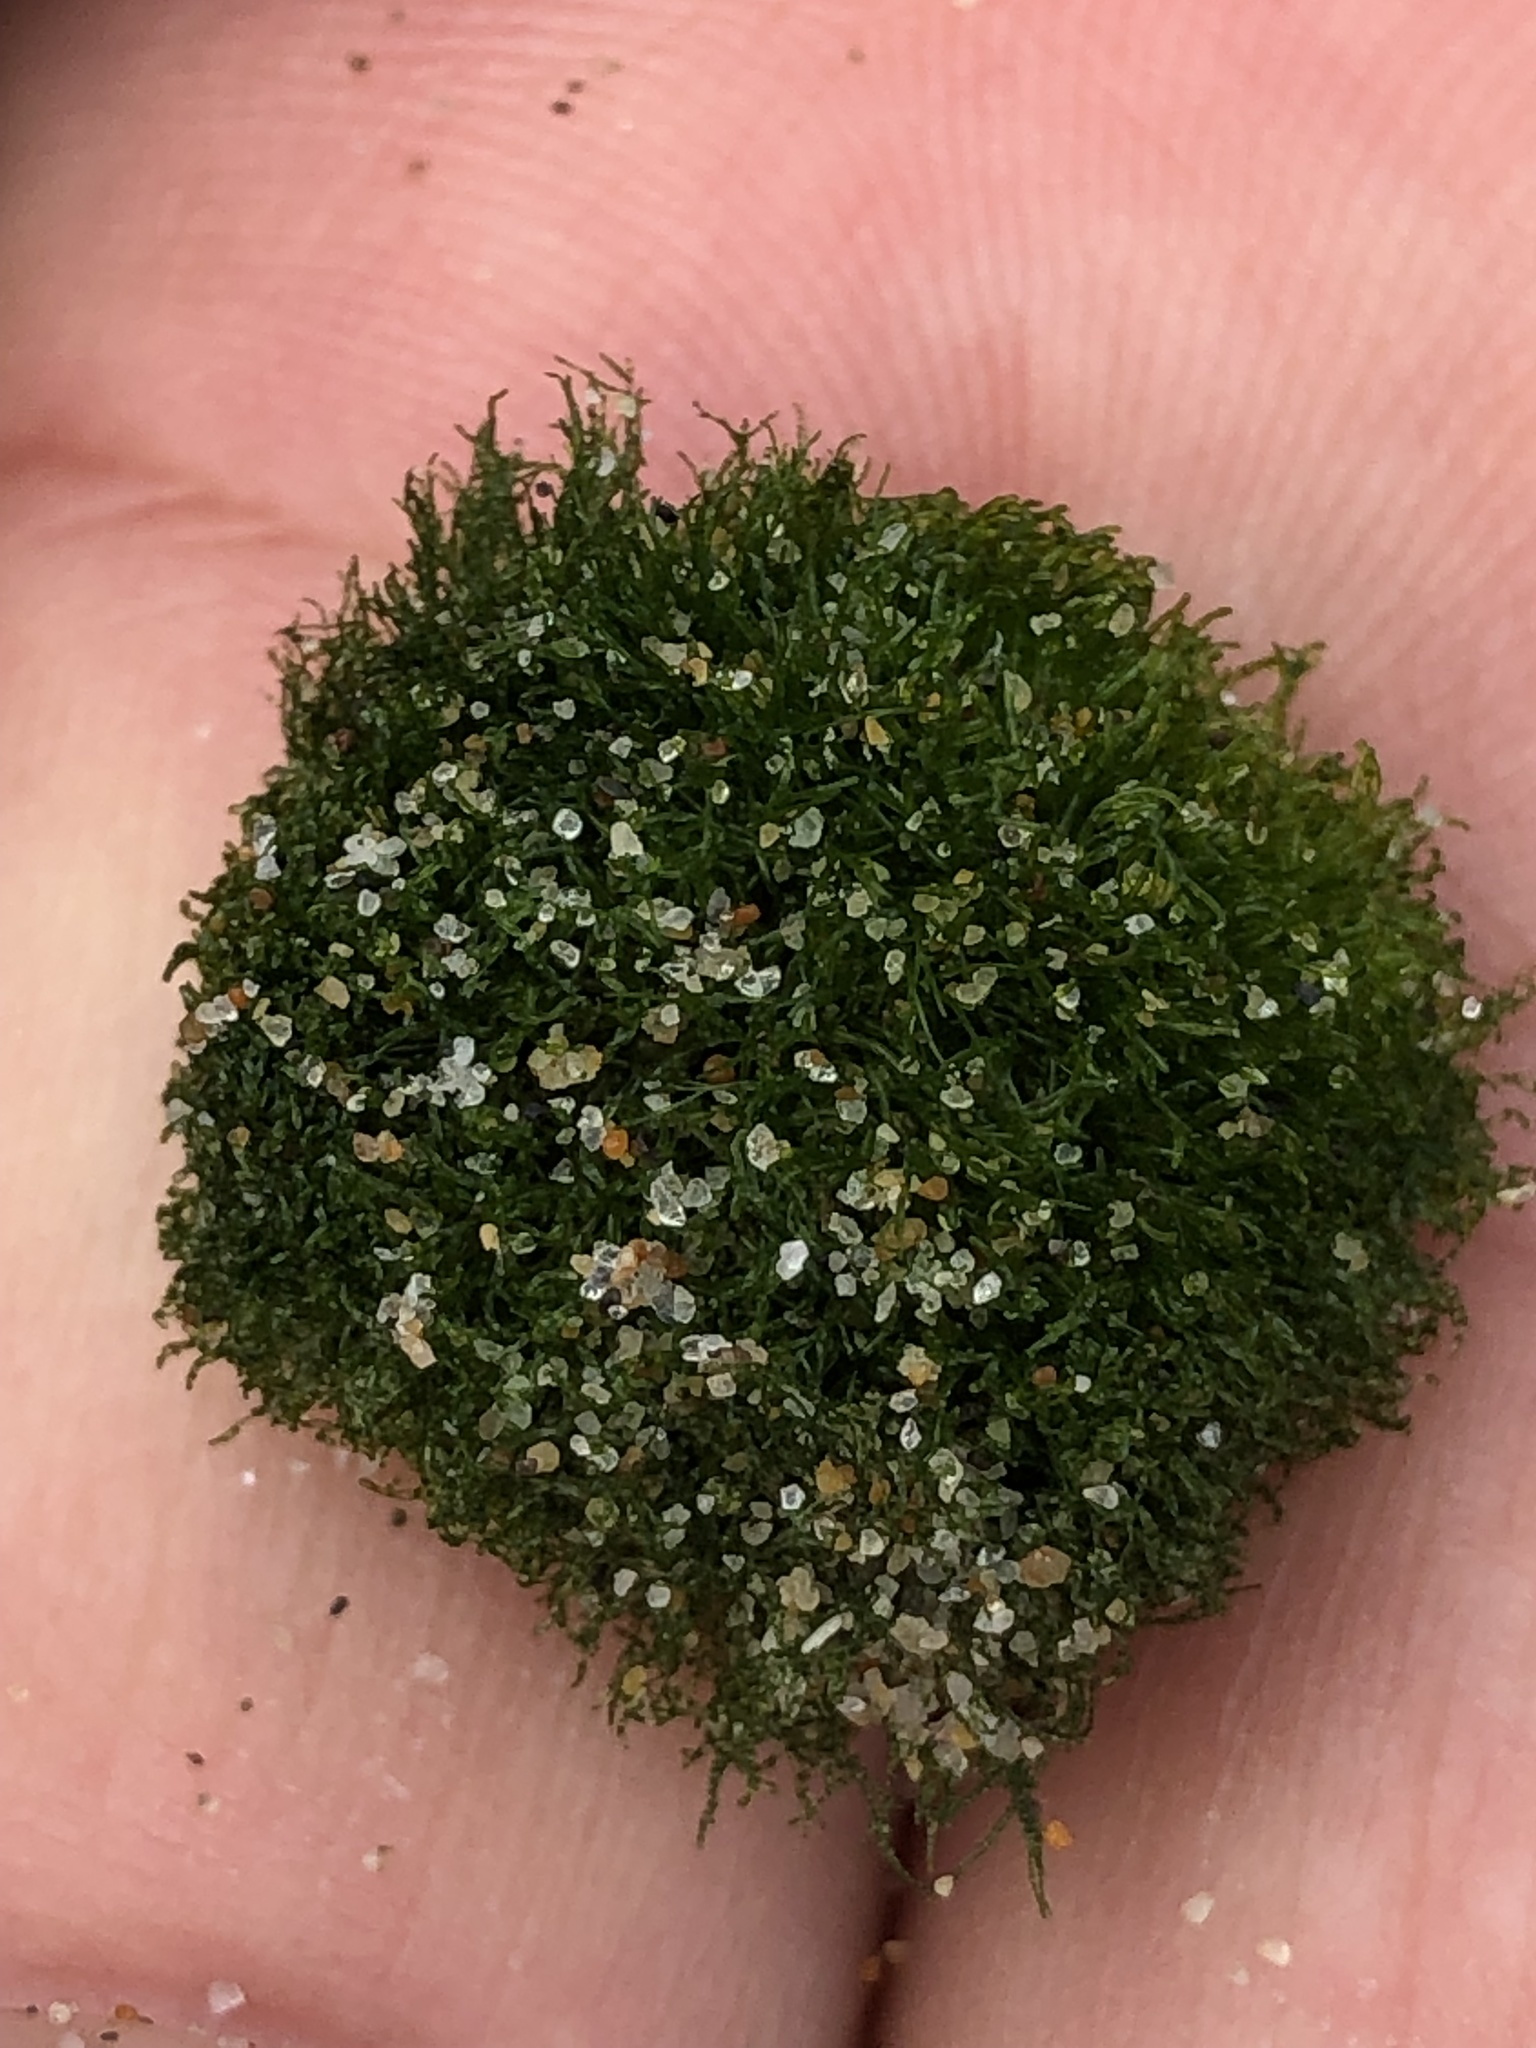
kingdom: Plantae
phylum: Chlorophyta
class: Ulvophyceae
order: Cladophorales
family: Cladophoraceae
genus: Cladophora
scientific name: Cladophora columbiana
